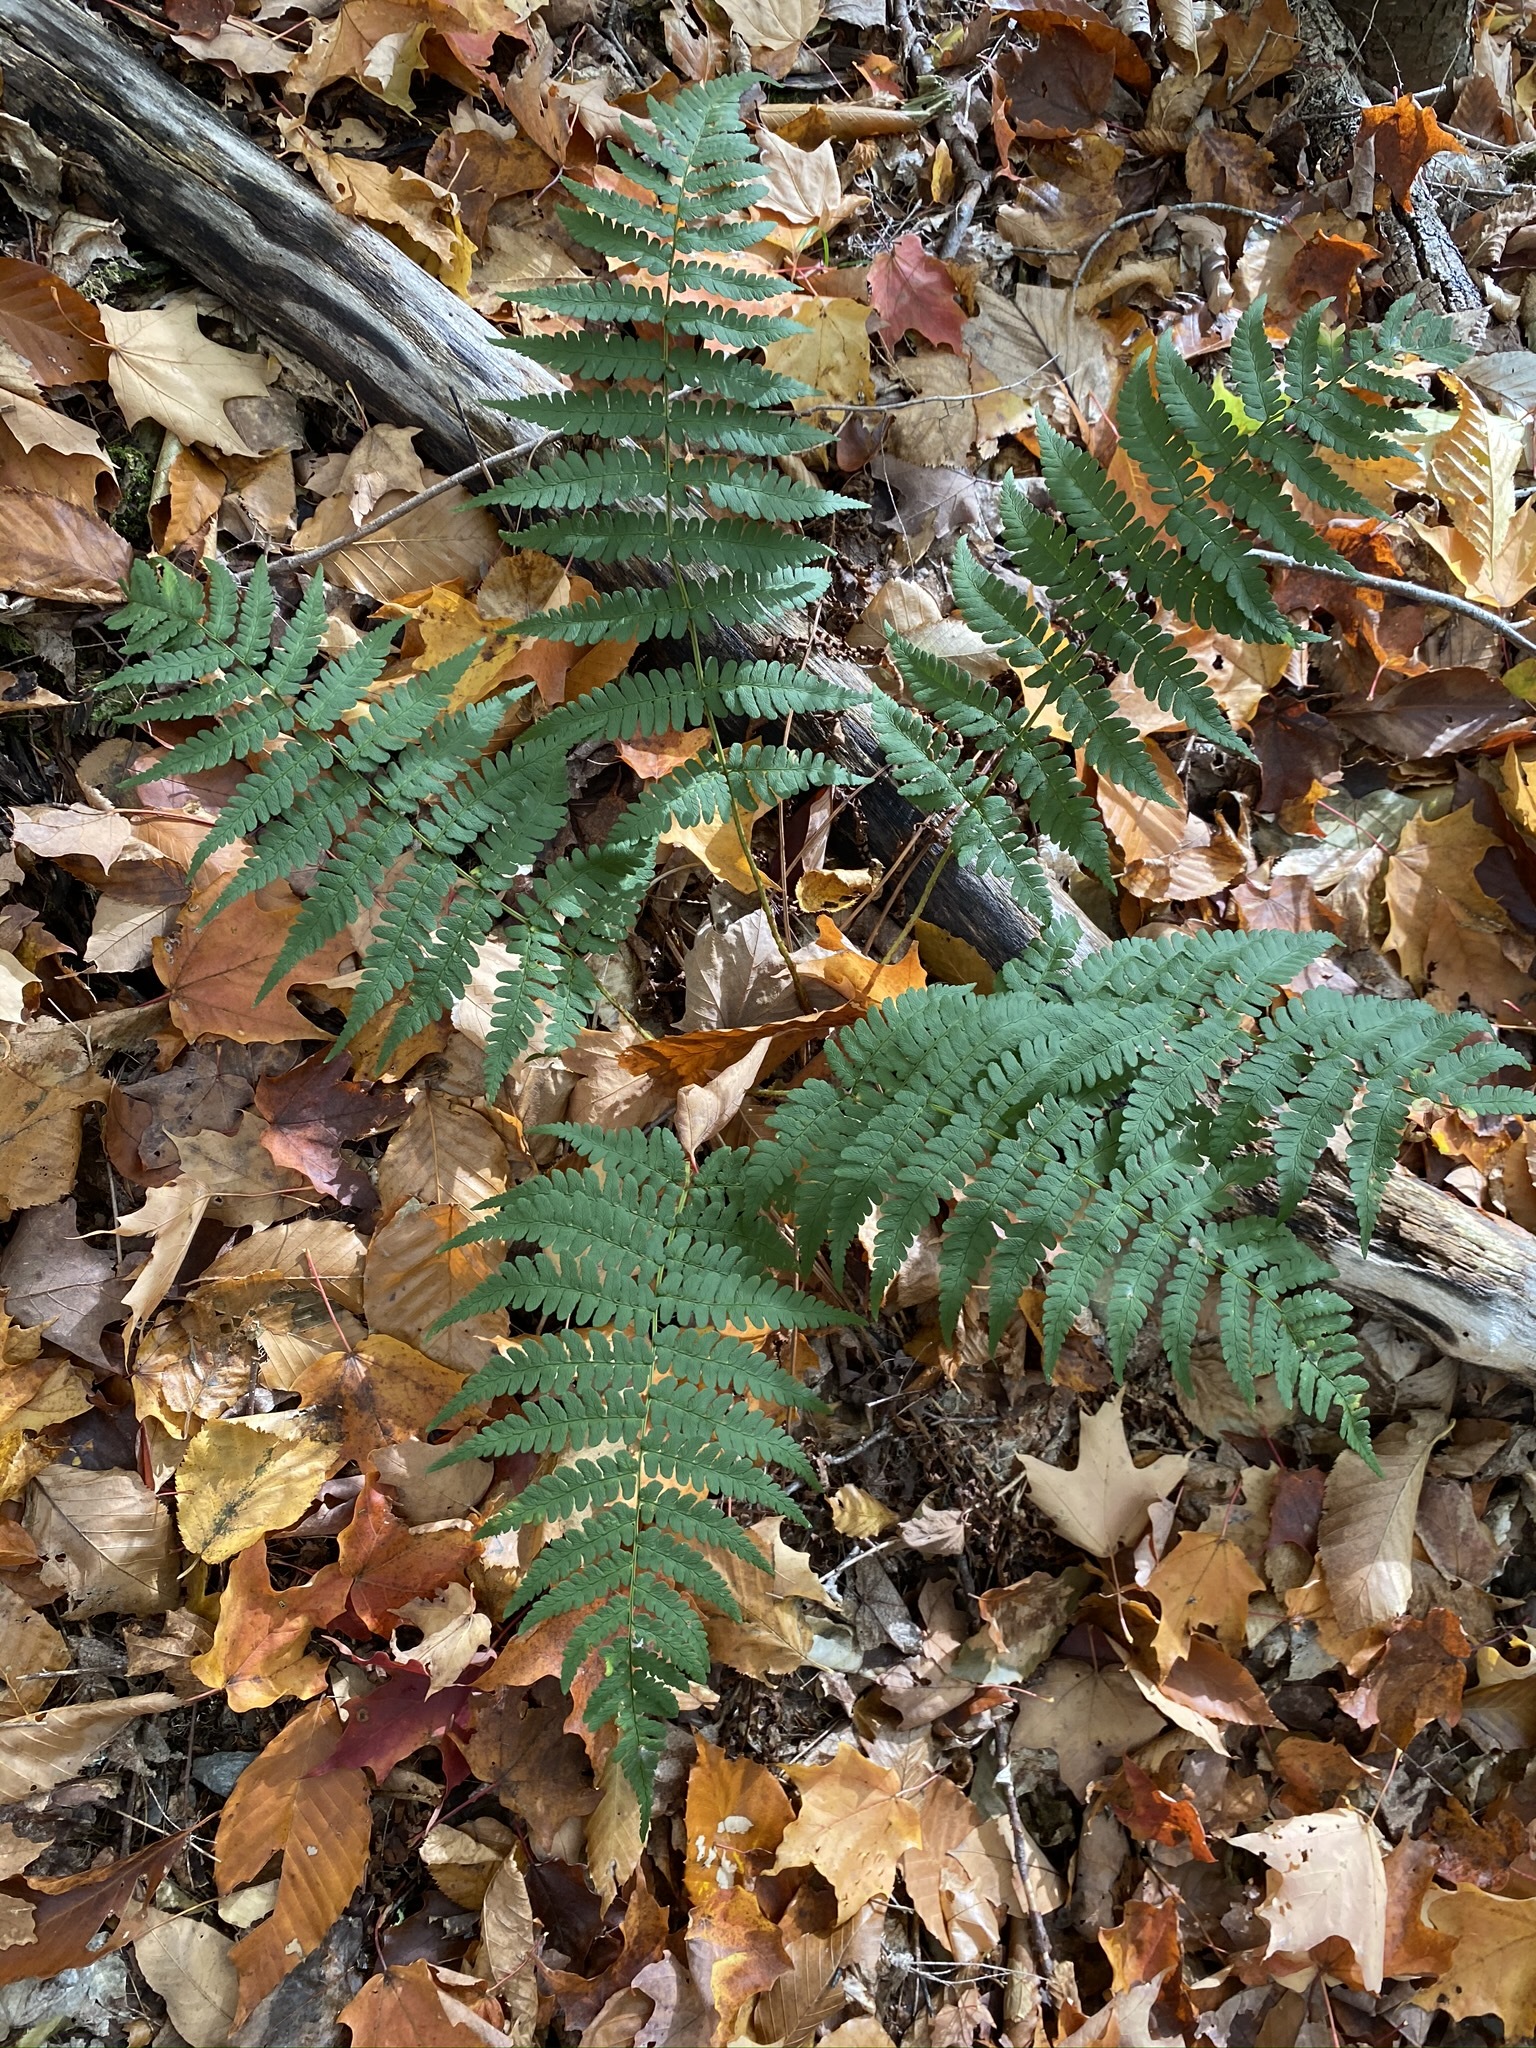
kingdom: Plantae
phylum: Tracheophyta
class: Polypodiopsida
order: Polypodiales
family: Dryopteridaceae
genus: Dryopteris
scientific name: Dryopteris marginalis
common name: Marginal wood fern
